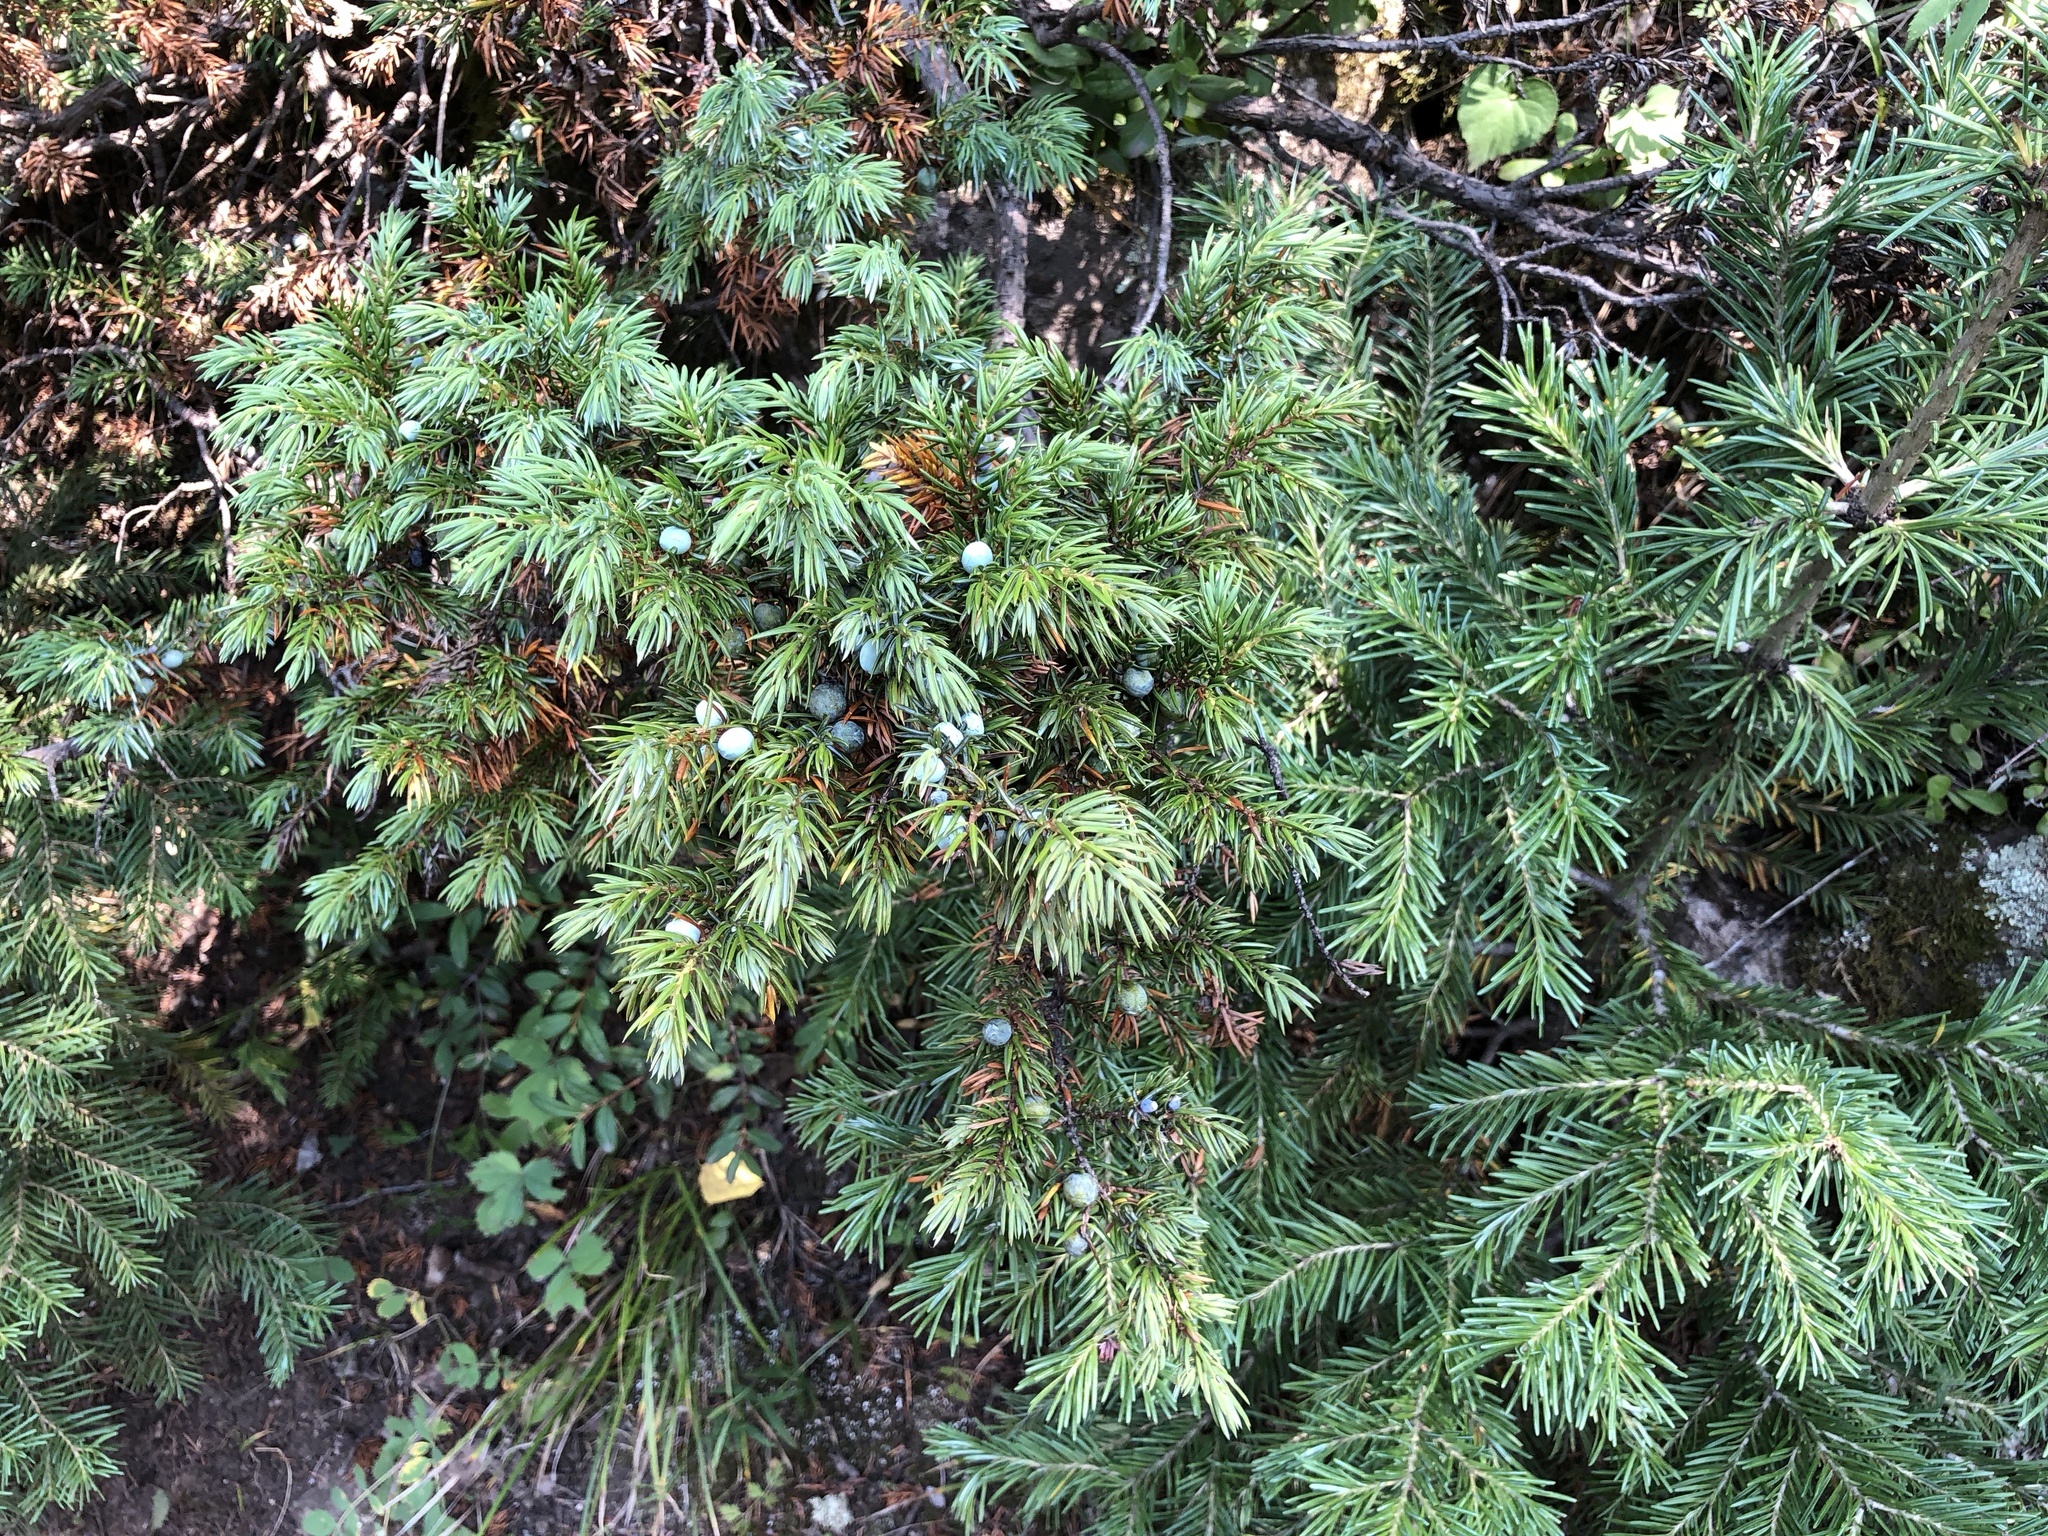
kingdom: Plantae
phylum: Tracheophyta
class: Pinopsida
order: Pinales
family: Cupressaceae
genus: Juniperus
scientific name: Juniperus communis
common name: Common juniper
